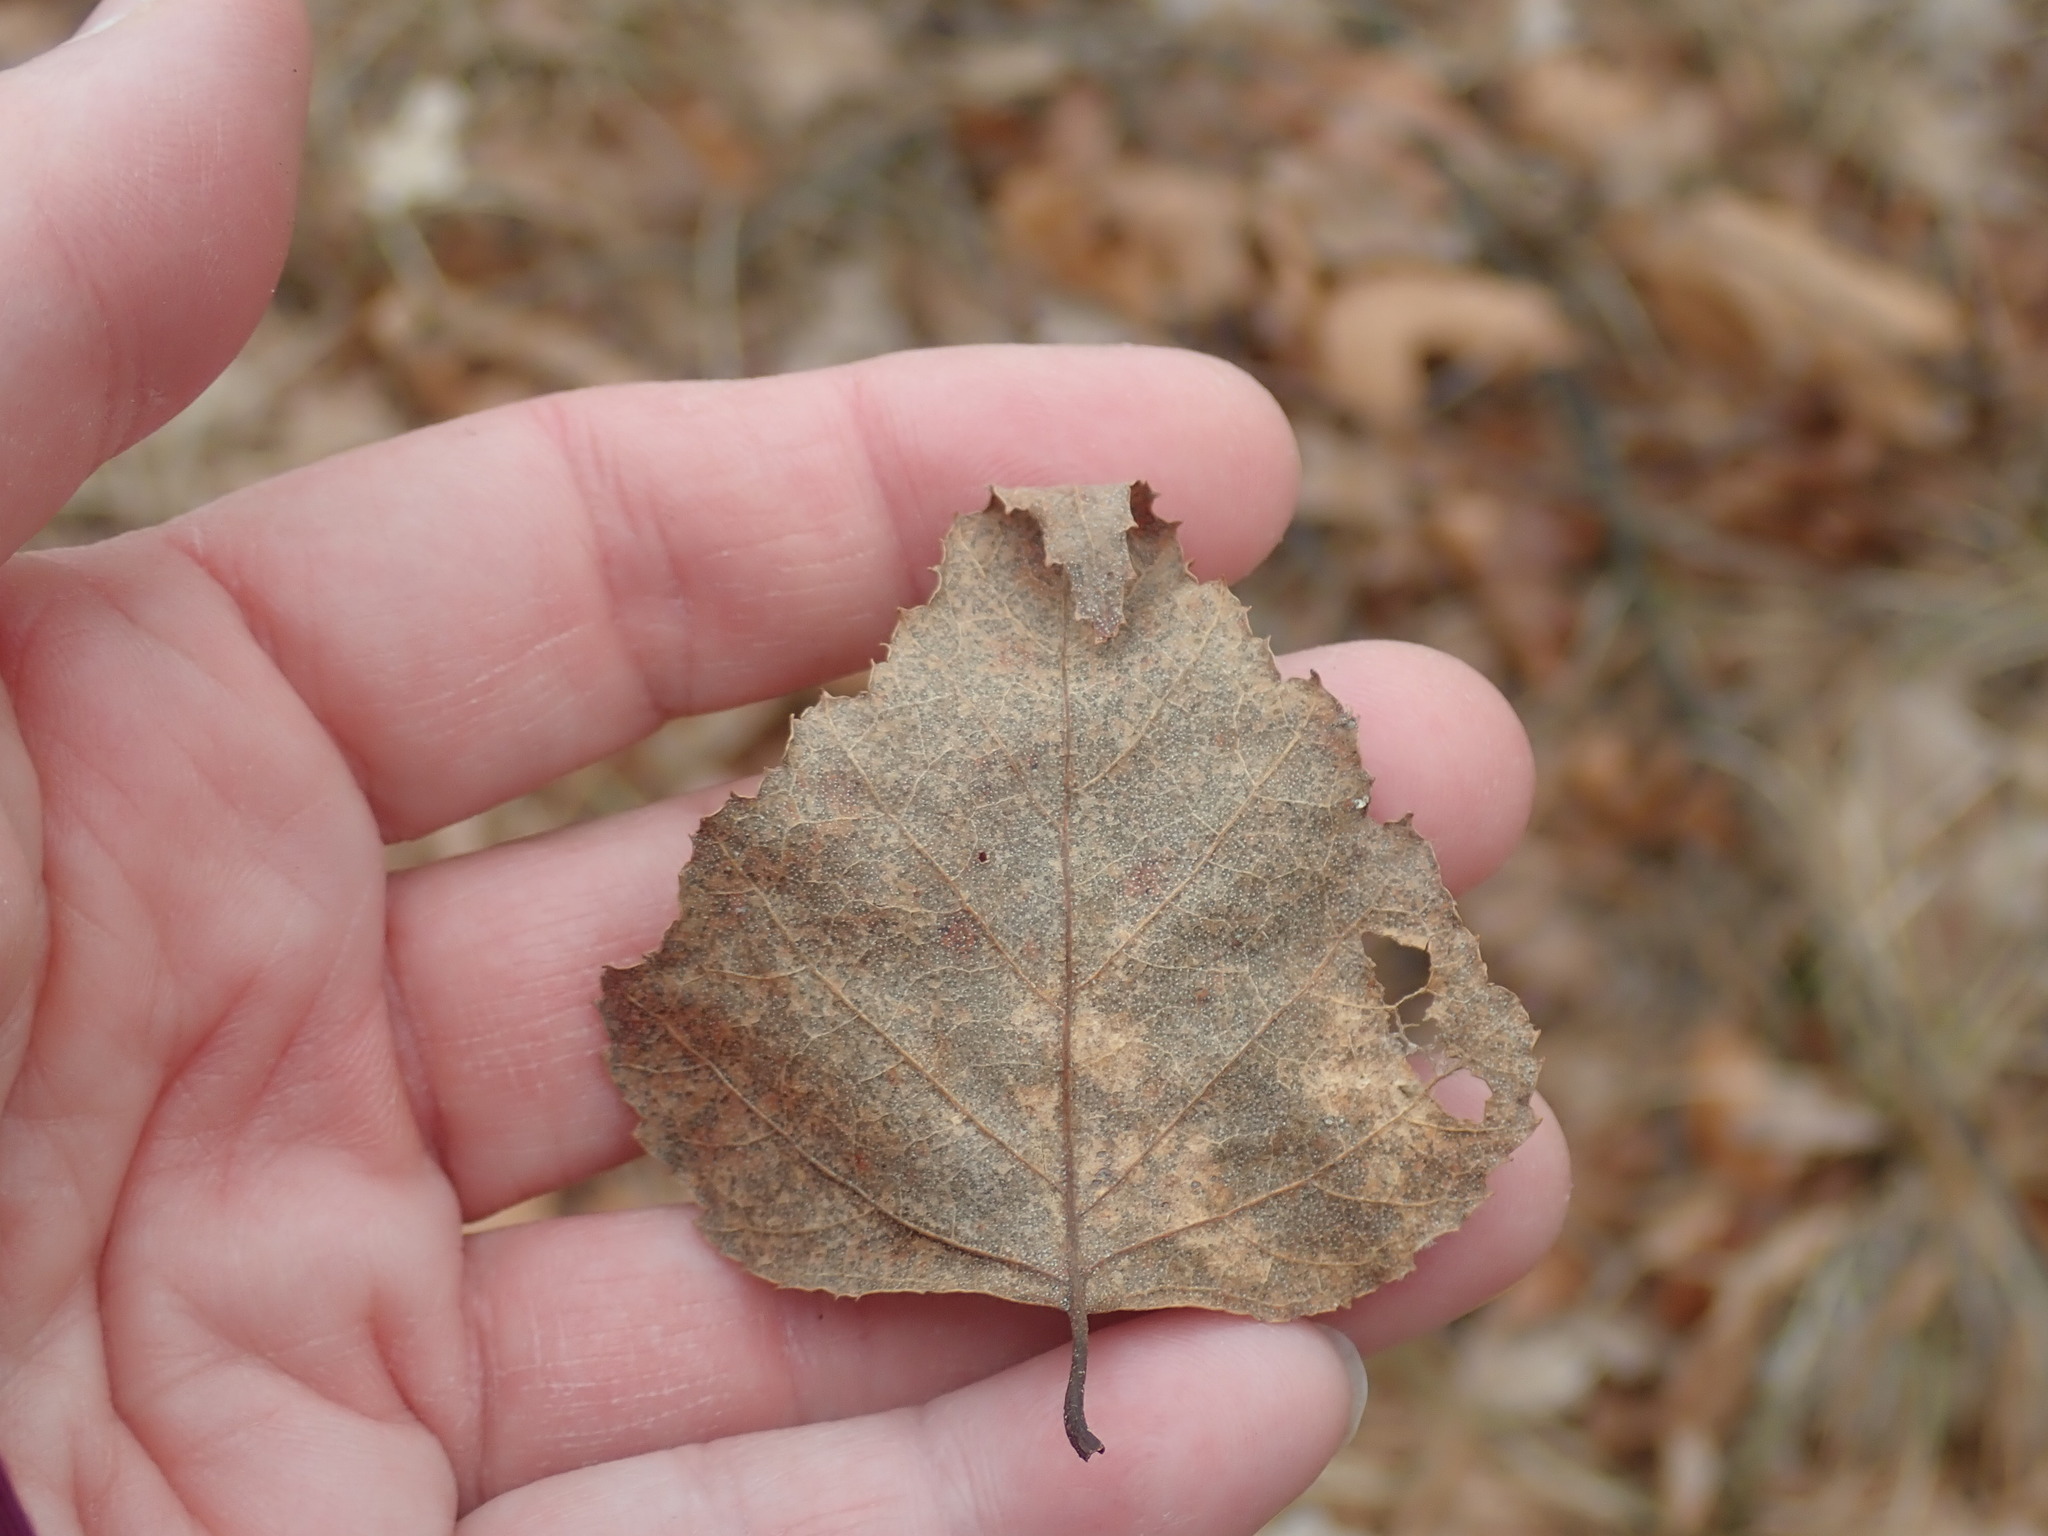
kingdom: Plantae
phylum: Tracheophyta
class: Magnoliopsida
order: Fagales
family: Betulaceae
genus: Betula
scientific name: Betula populifolia
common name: Fire birch
